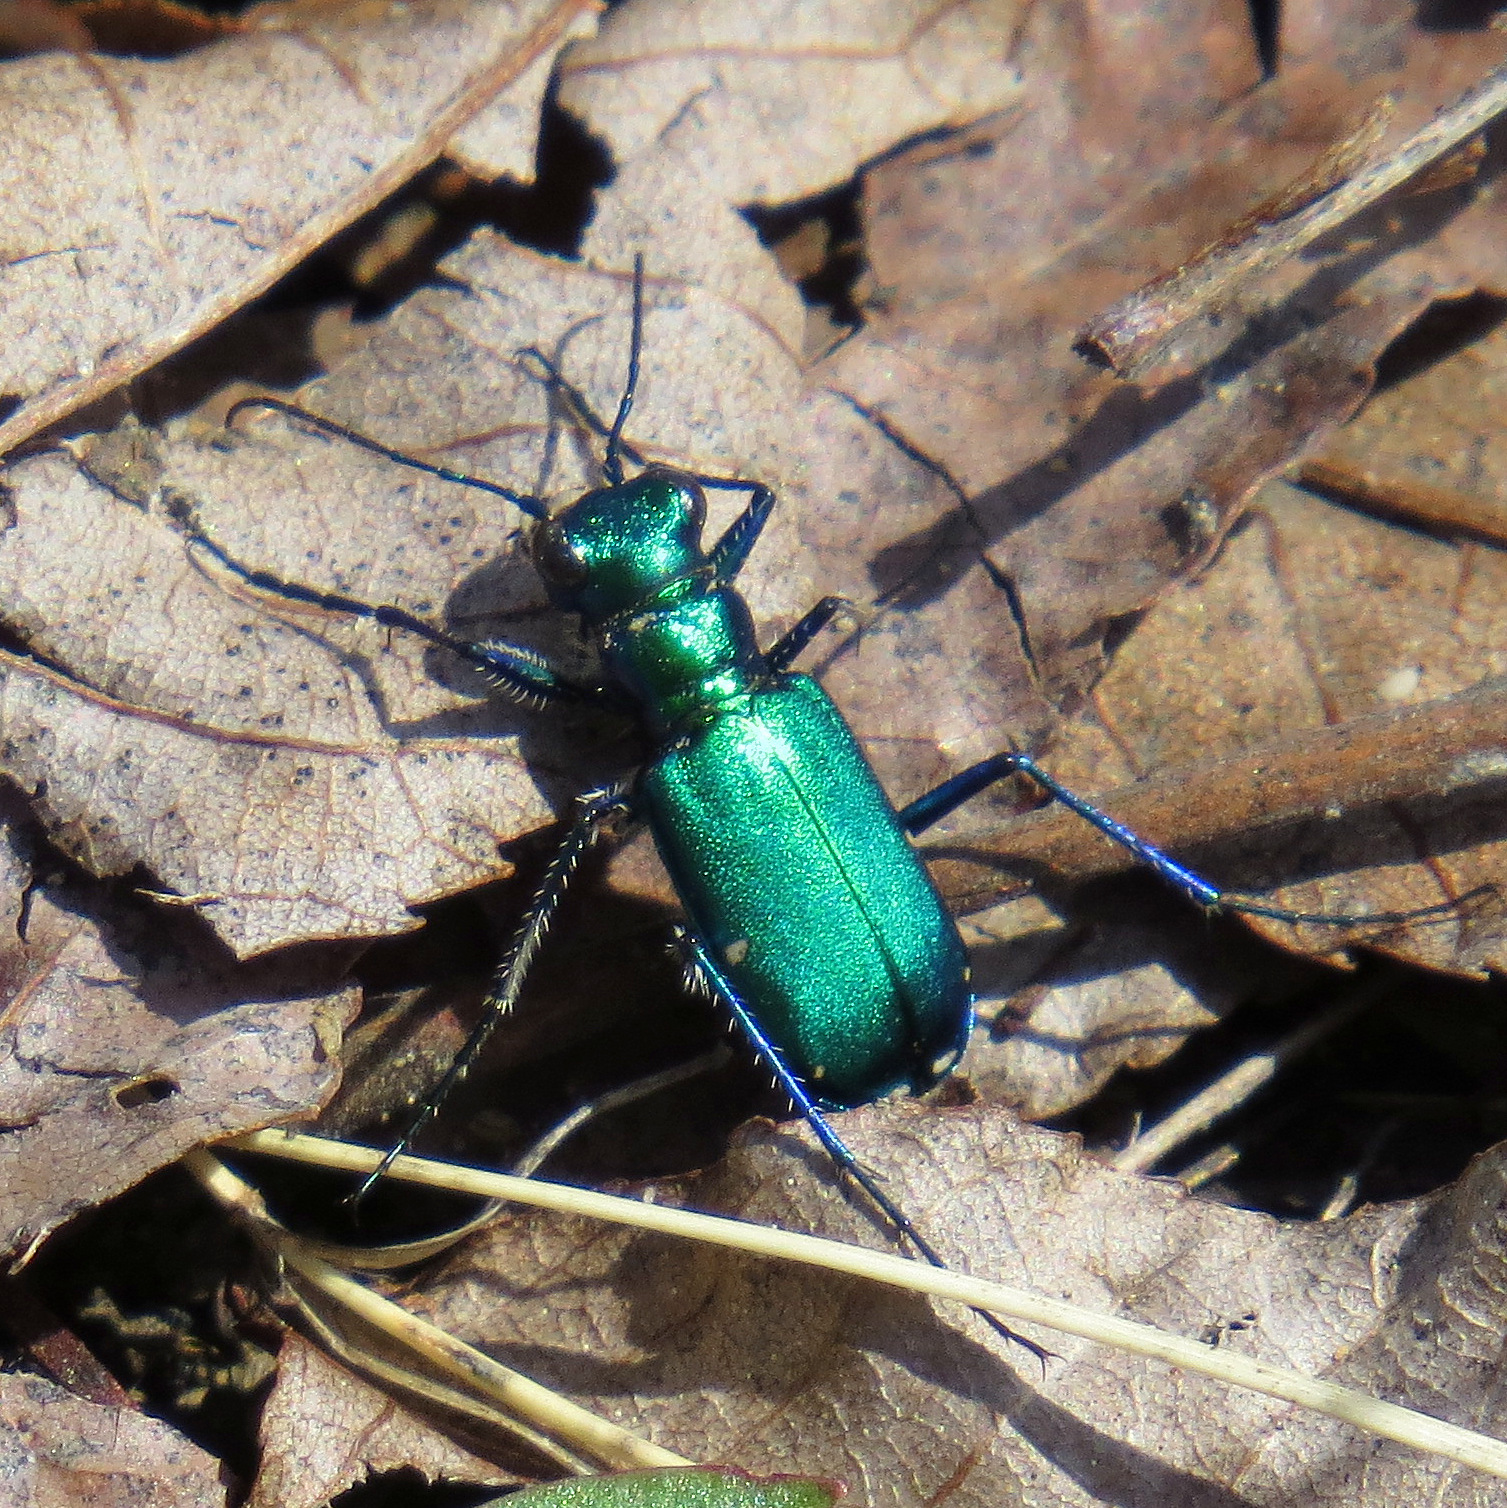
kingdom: Animalia
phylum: Arthropoda
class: Insecta
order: Coleoptera
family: Carabidae
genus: Cicindela
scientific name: Cicindela sexguttata
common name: Six-spotted tiger beetle
